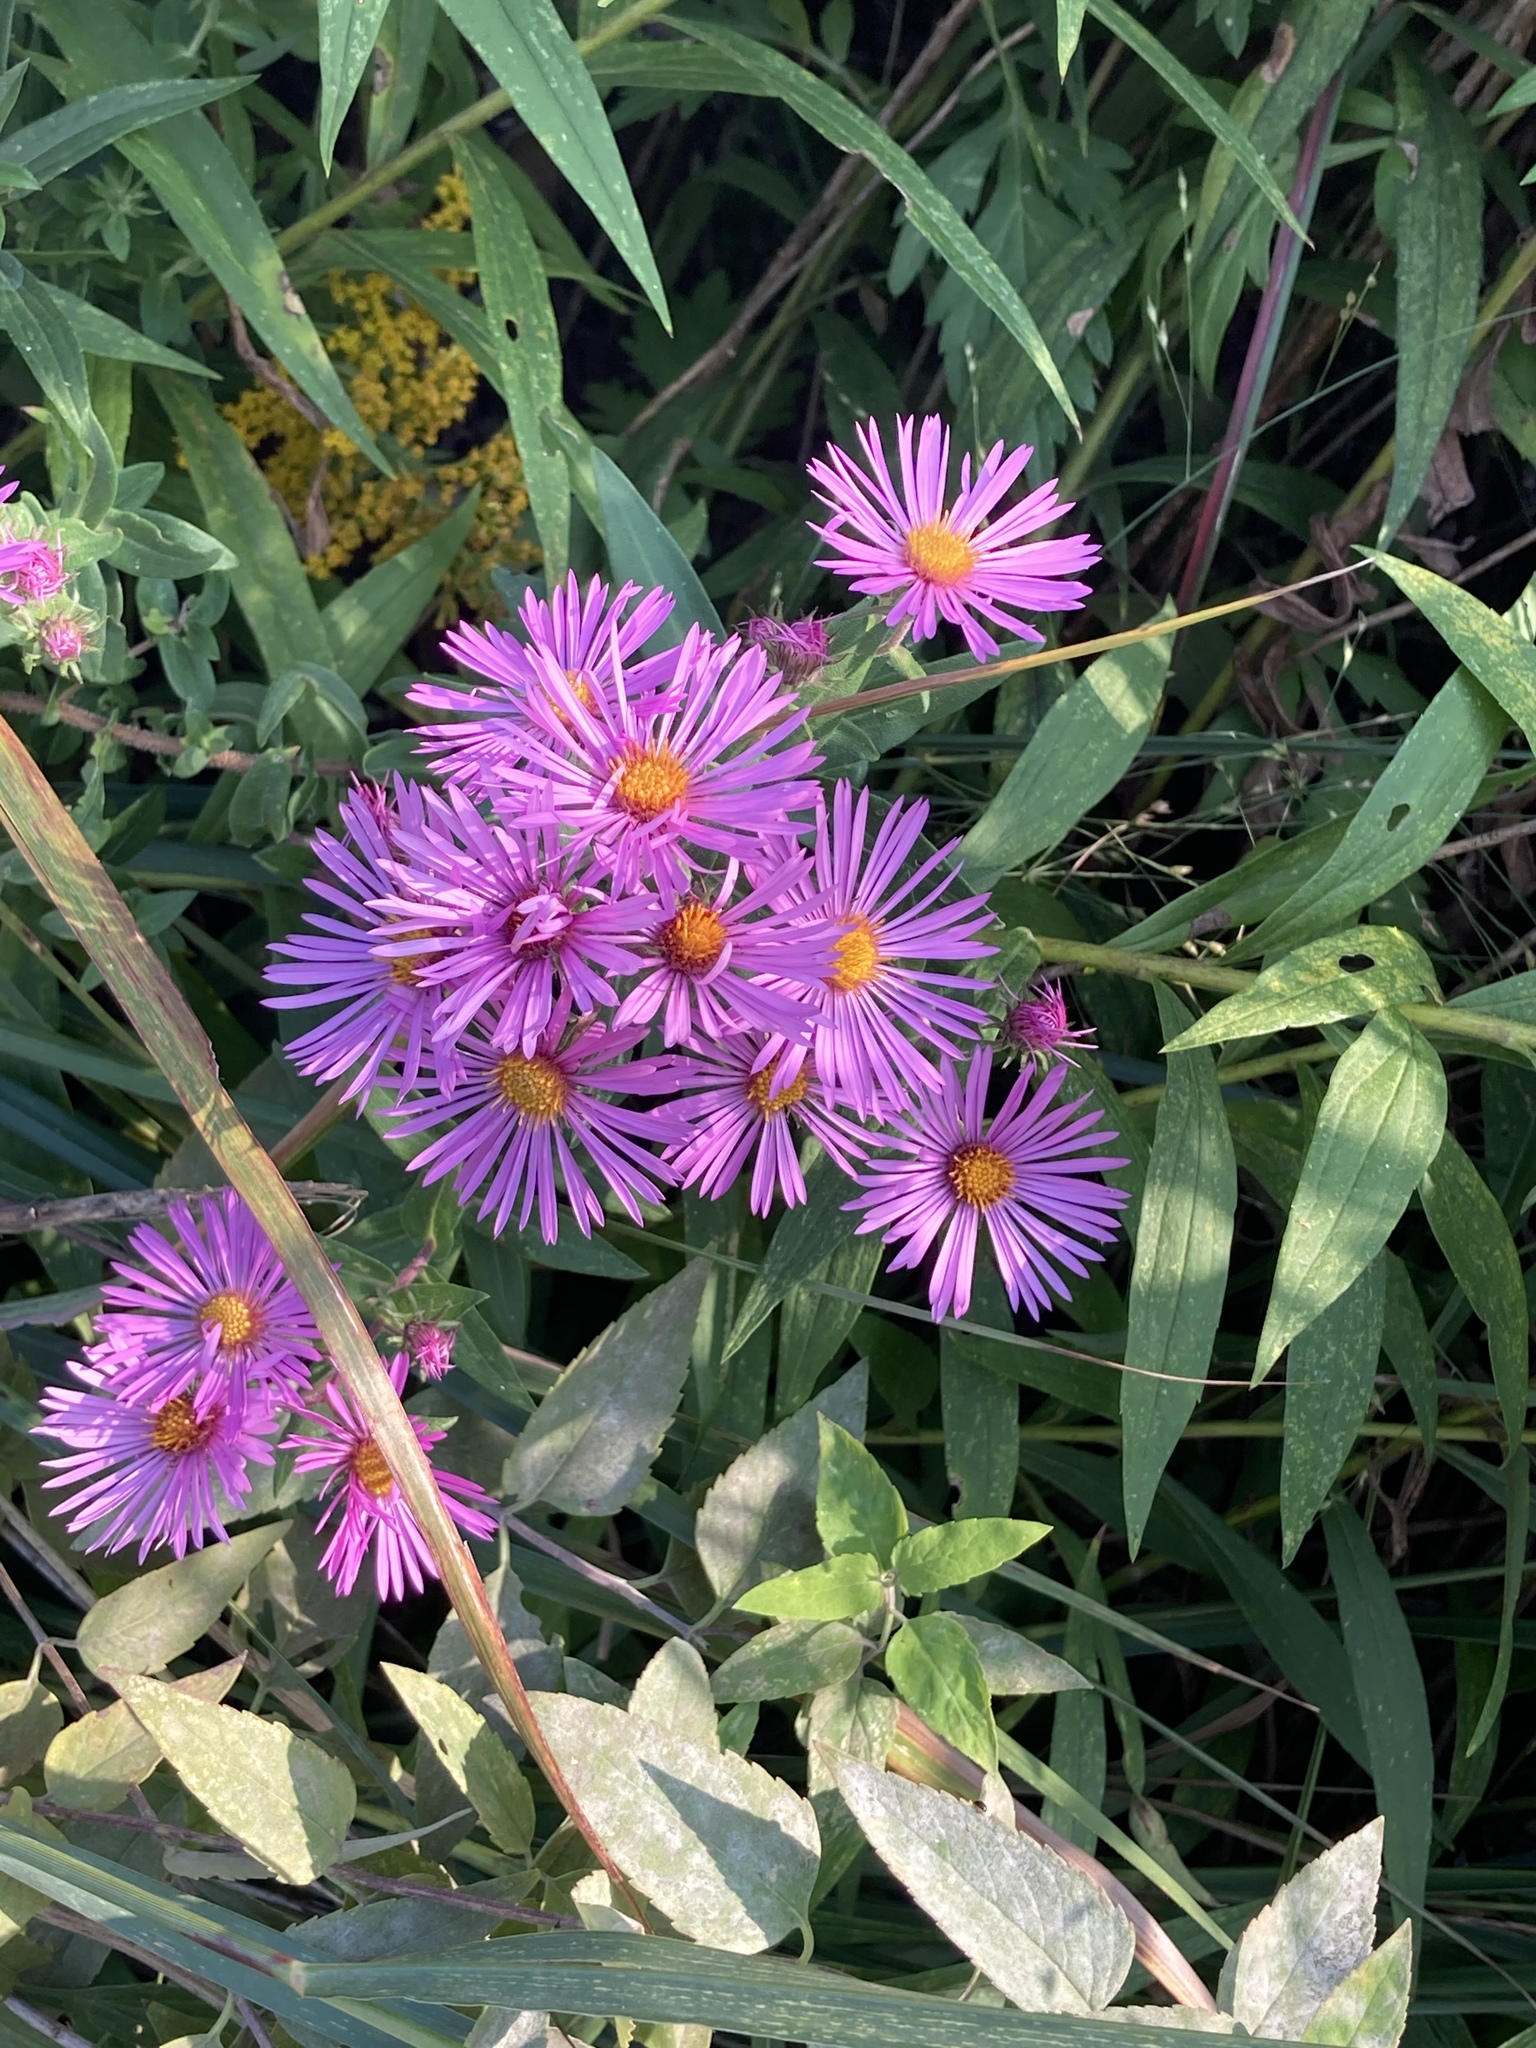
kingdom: Plantae
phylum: Tracheophyta
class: Magnoliopsida
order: Asterales
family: Asteraceae
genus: Symphyotrichum
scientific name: Symphyotrichum novae-angliae
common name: Michaelmas daisy
